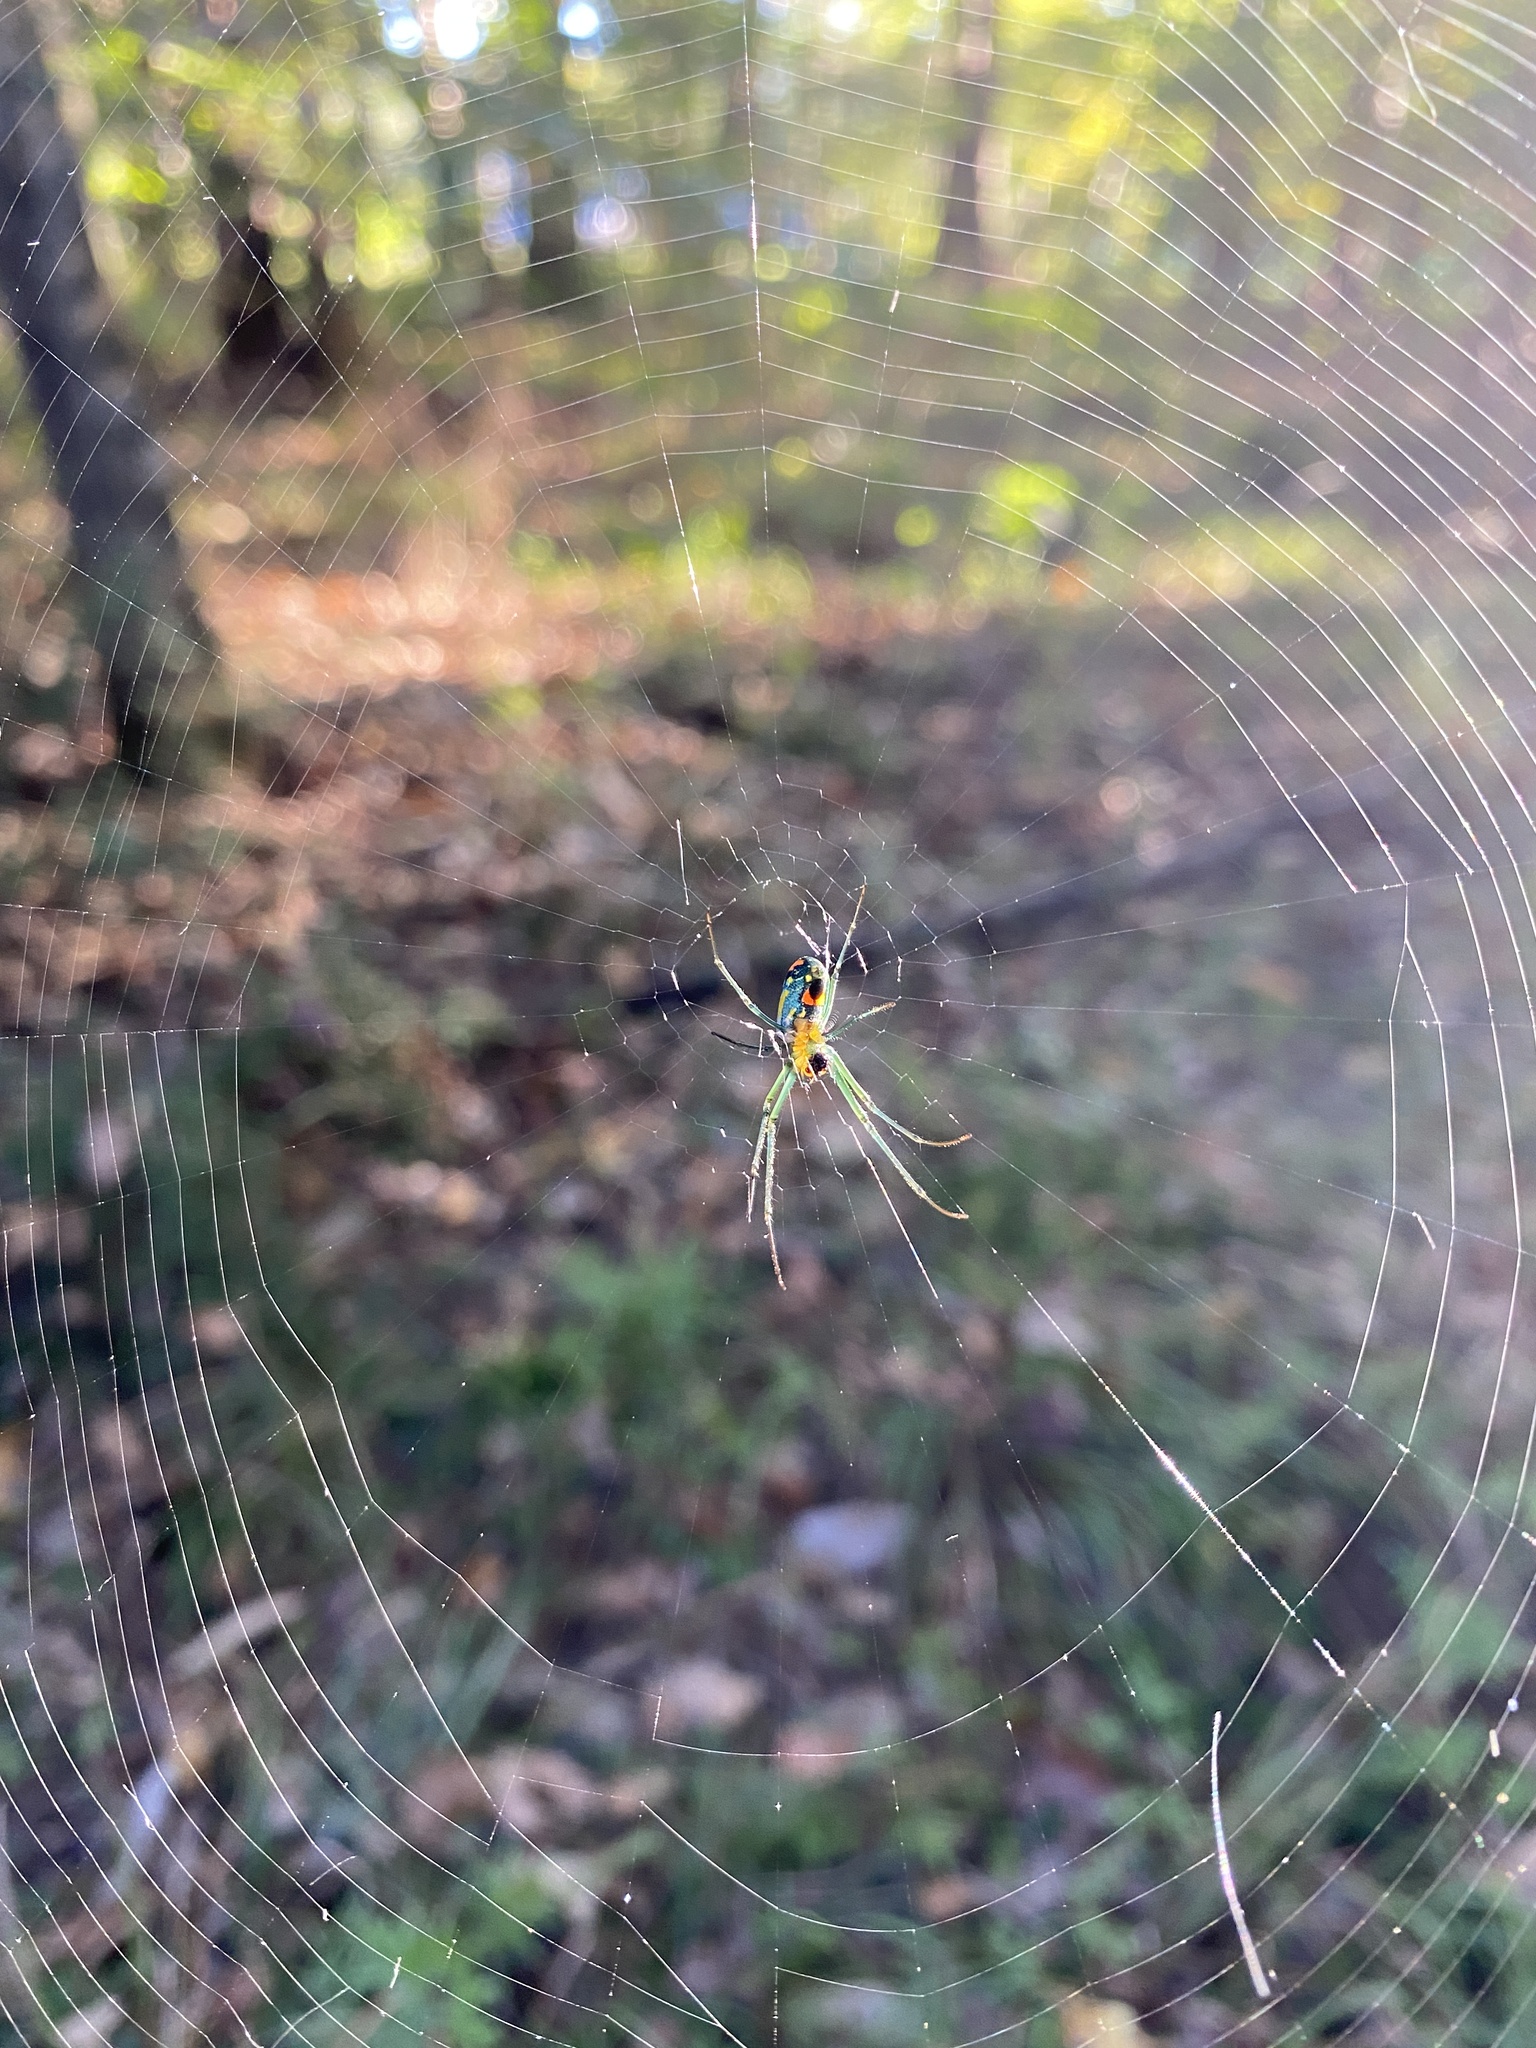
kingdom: Animalia
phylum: Arthropoda
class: Arachnida
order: Araneae
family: Tetragnathidae
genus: Leucauge
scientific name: Leucauge argyrobapta
